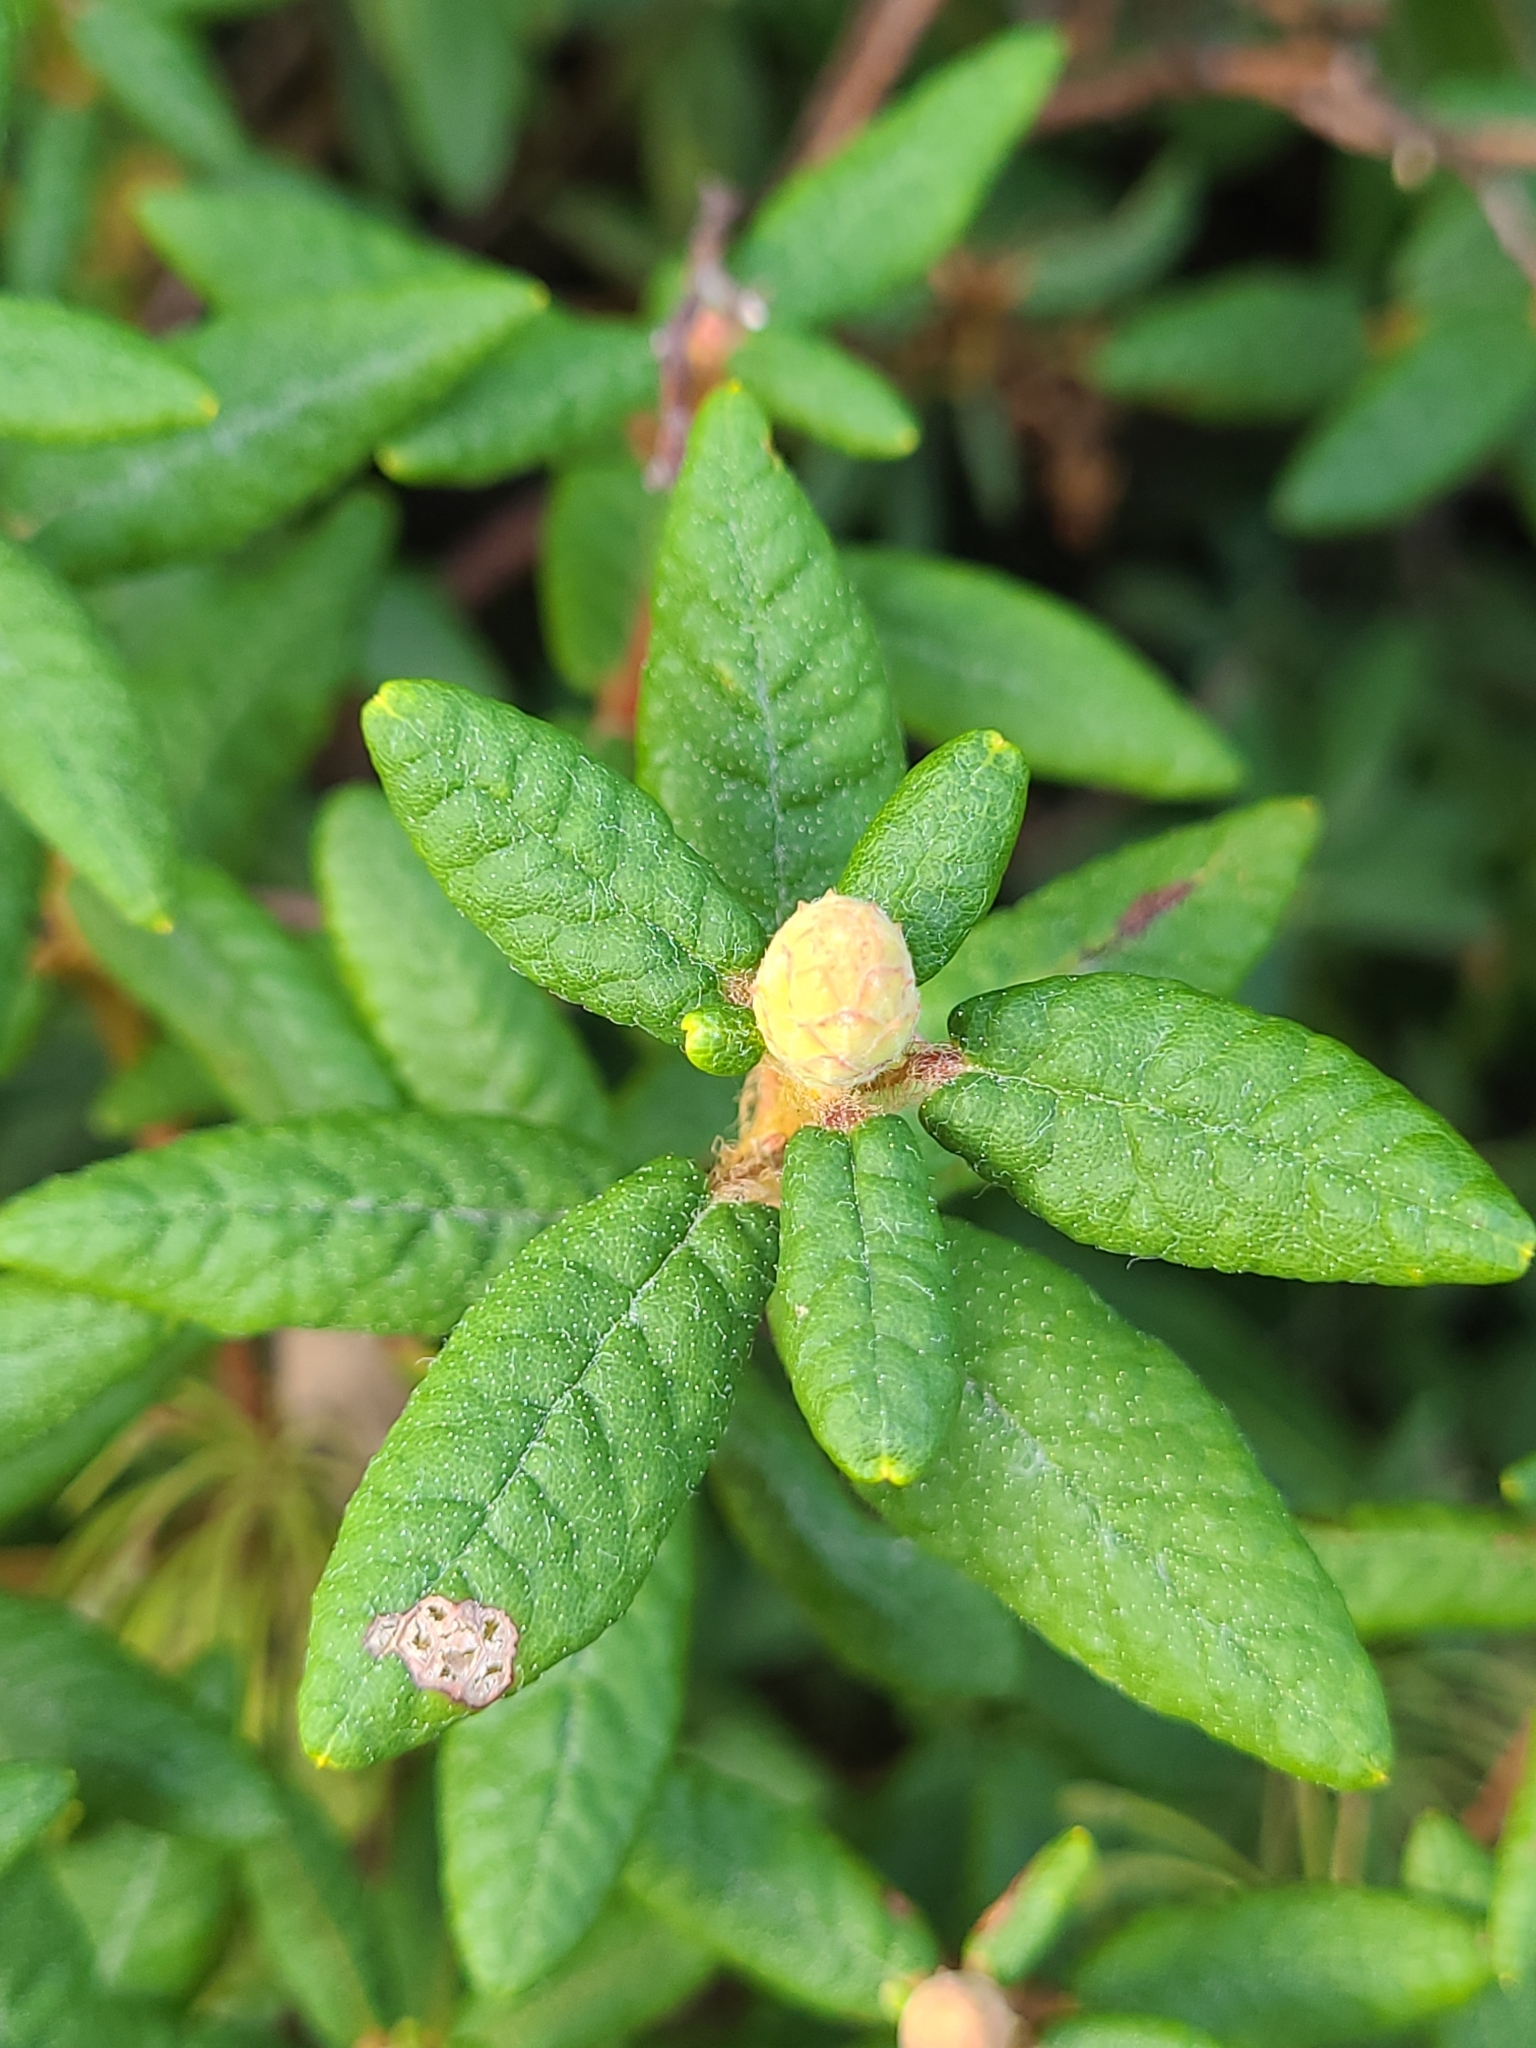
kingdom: Plantae
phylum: Tracheophyta
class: Magnoliopsida
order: Ericales
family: Ericaceae
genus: Rhododendron
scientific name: Rhododendron groenlandicum
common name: Bog labrador tea
